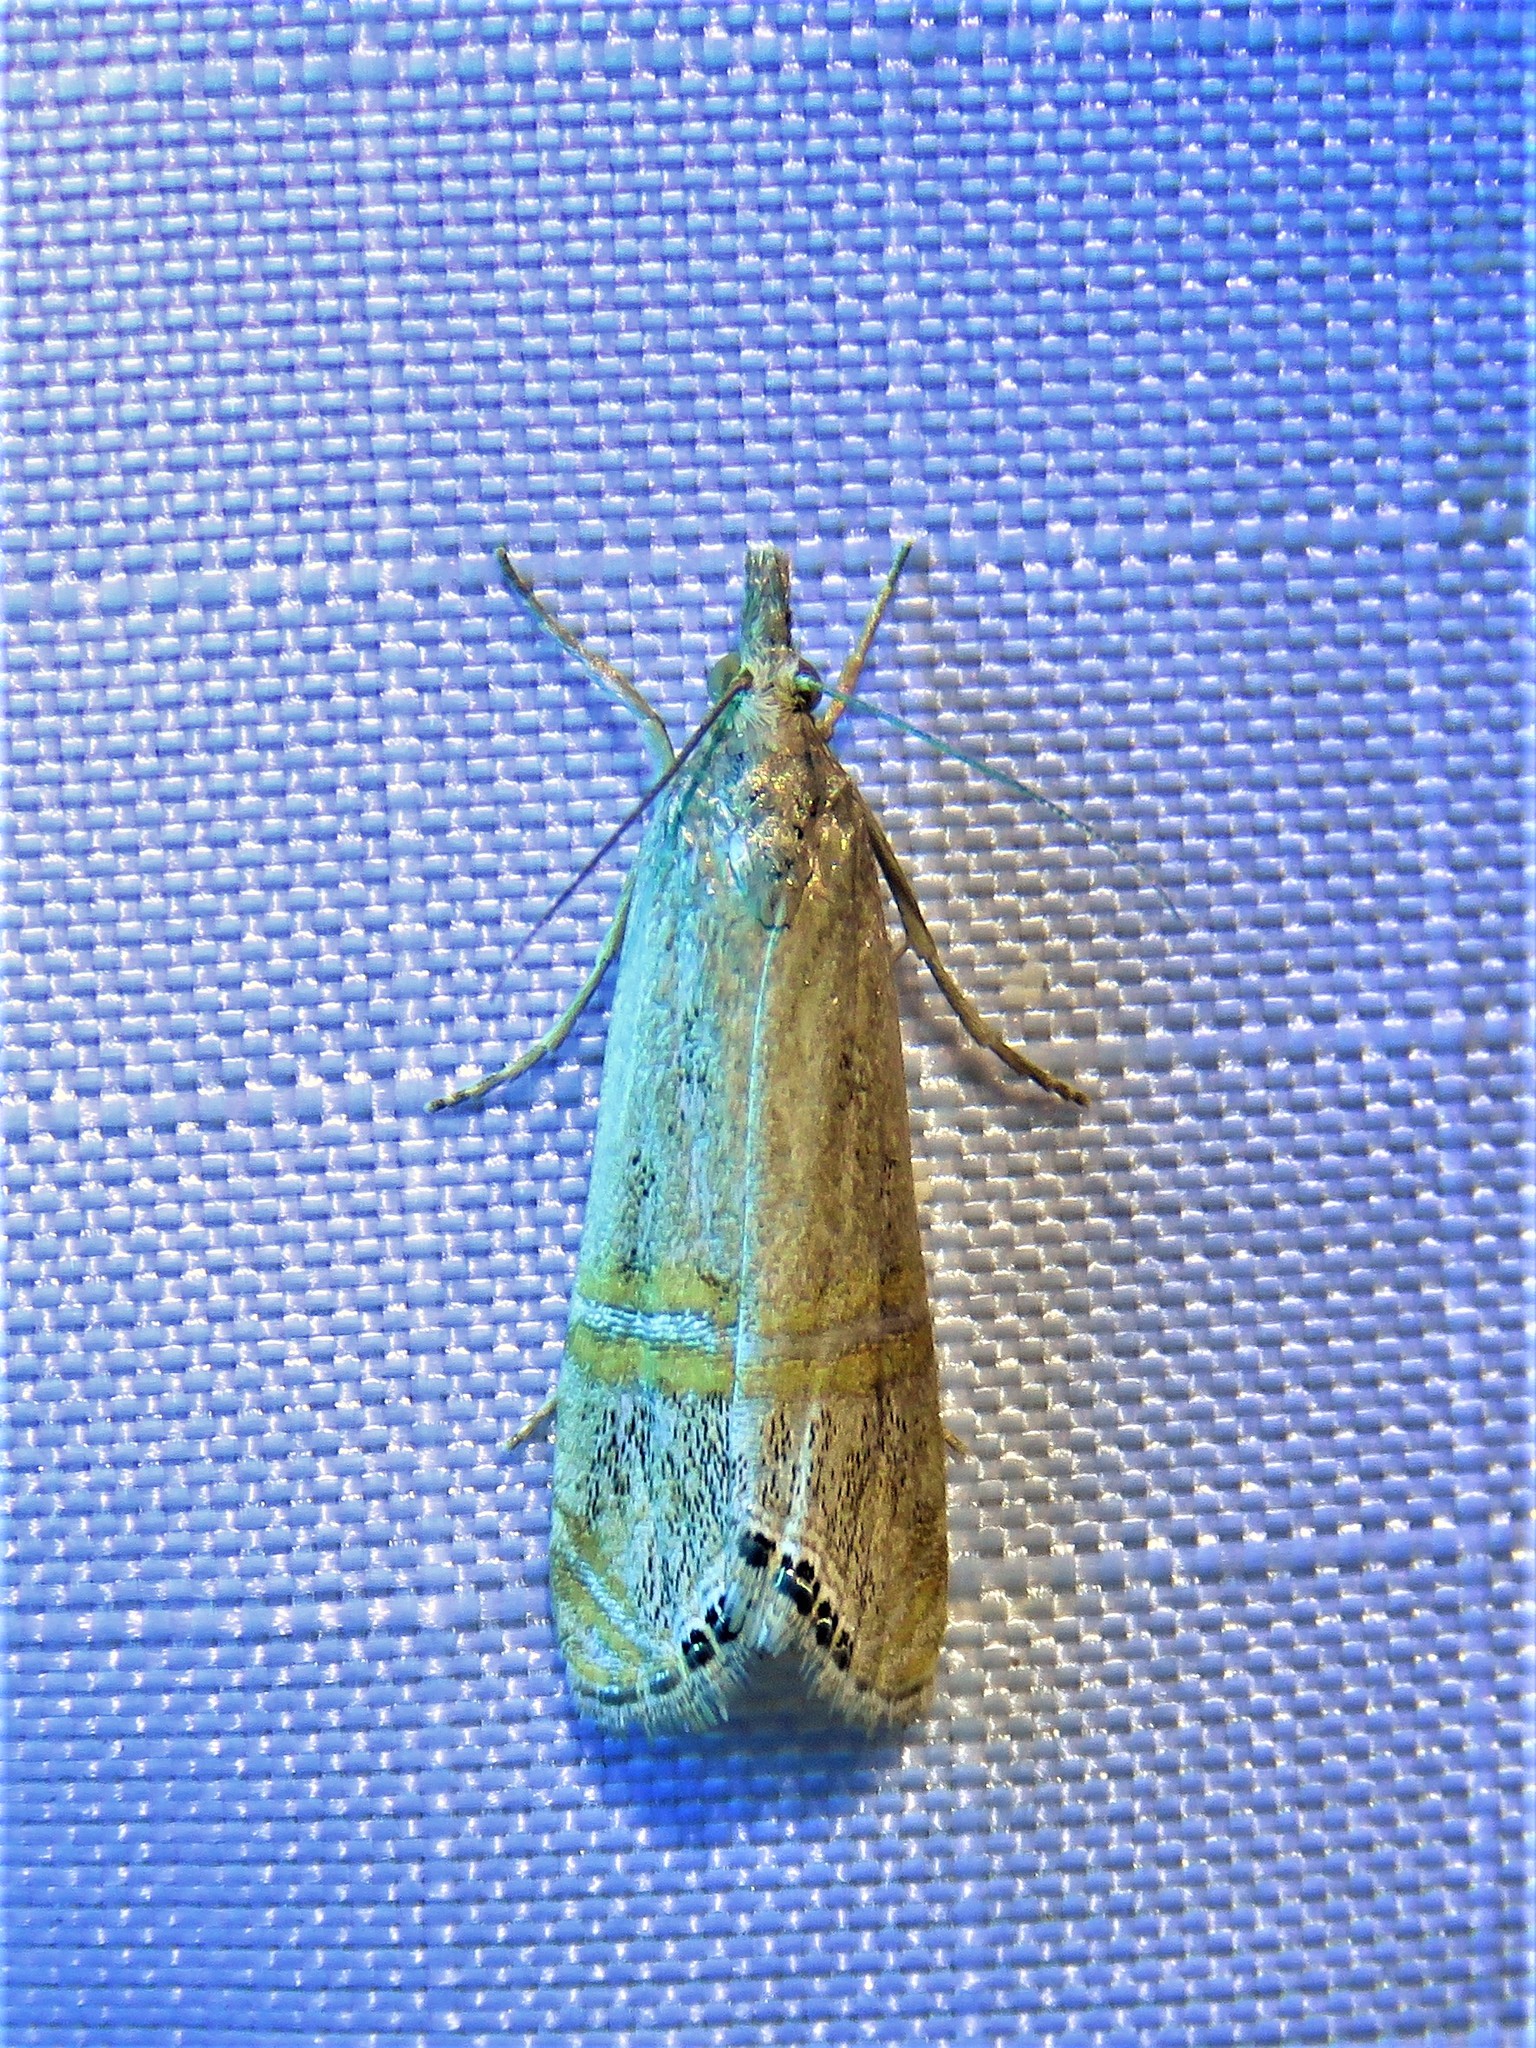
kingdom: Animalia
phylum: Arthropoda
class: Insecta
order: Lepidoptera
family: Crambidae
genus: Euchromius
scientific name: Euchromius ocellea
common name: Necklace veneer moth
